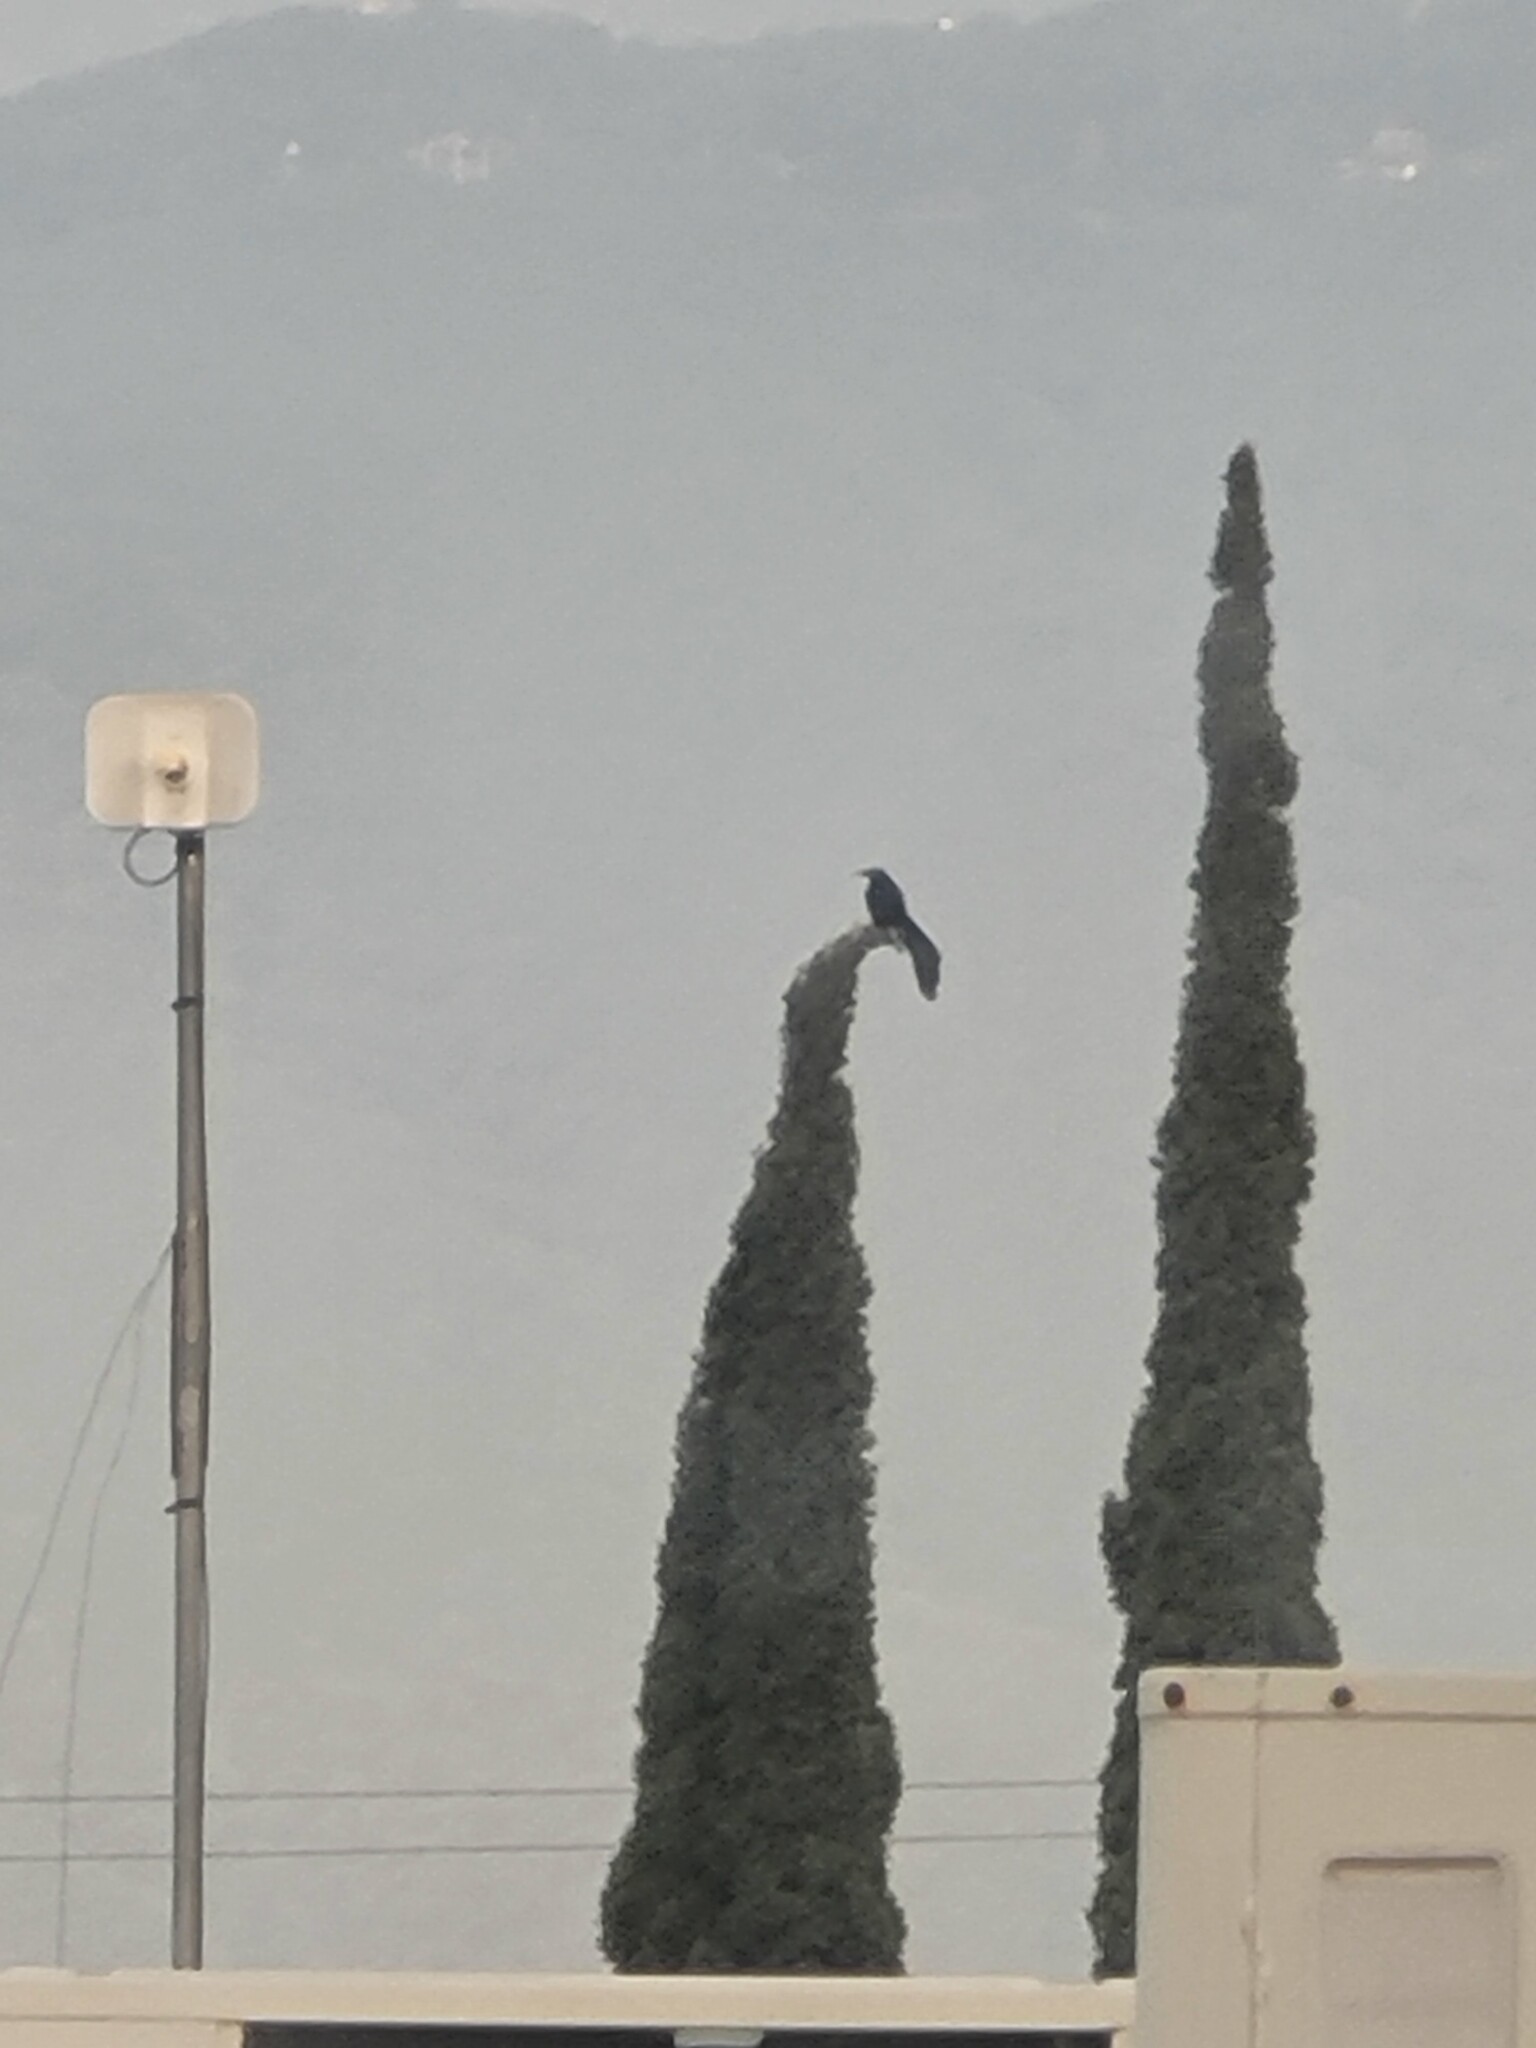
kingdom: Animalia
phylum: Chordata
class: Aves
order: Passeriformes
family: Icteridae
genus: Quiscalus
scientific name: Quiscalus mexicanus
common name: Great-tailed grackle
